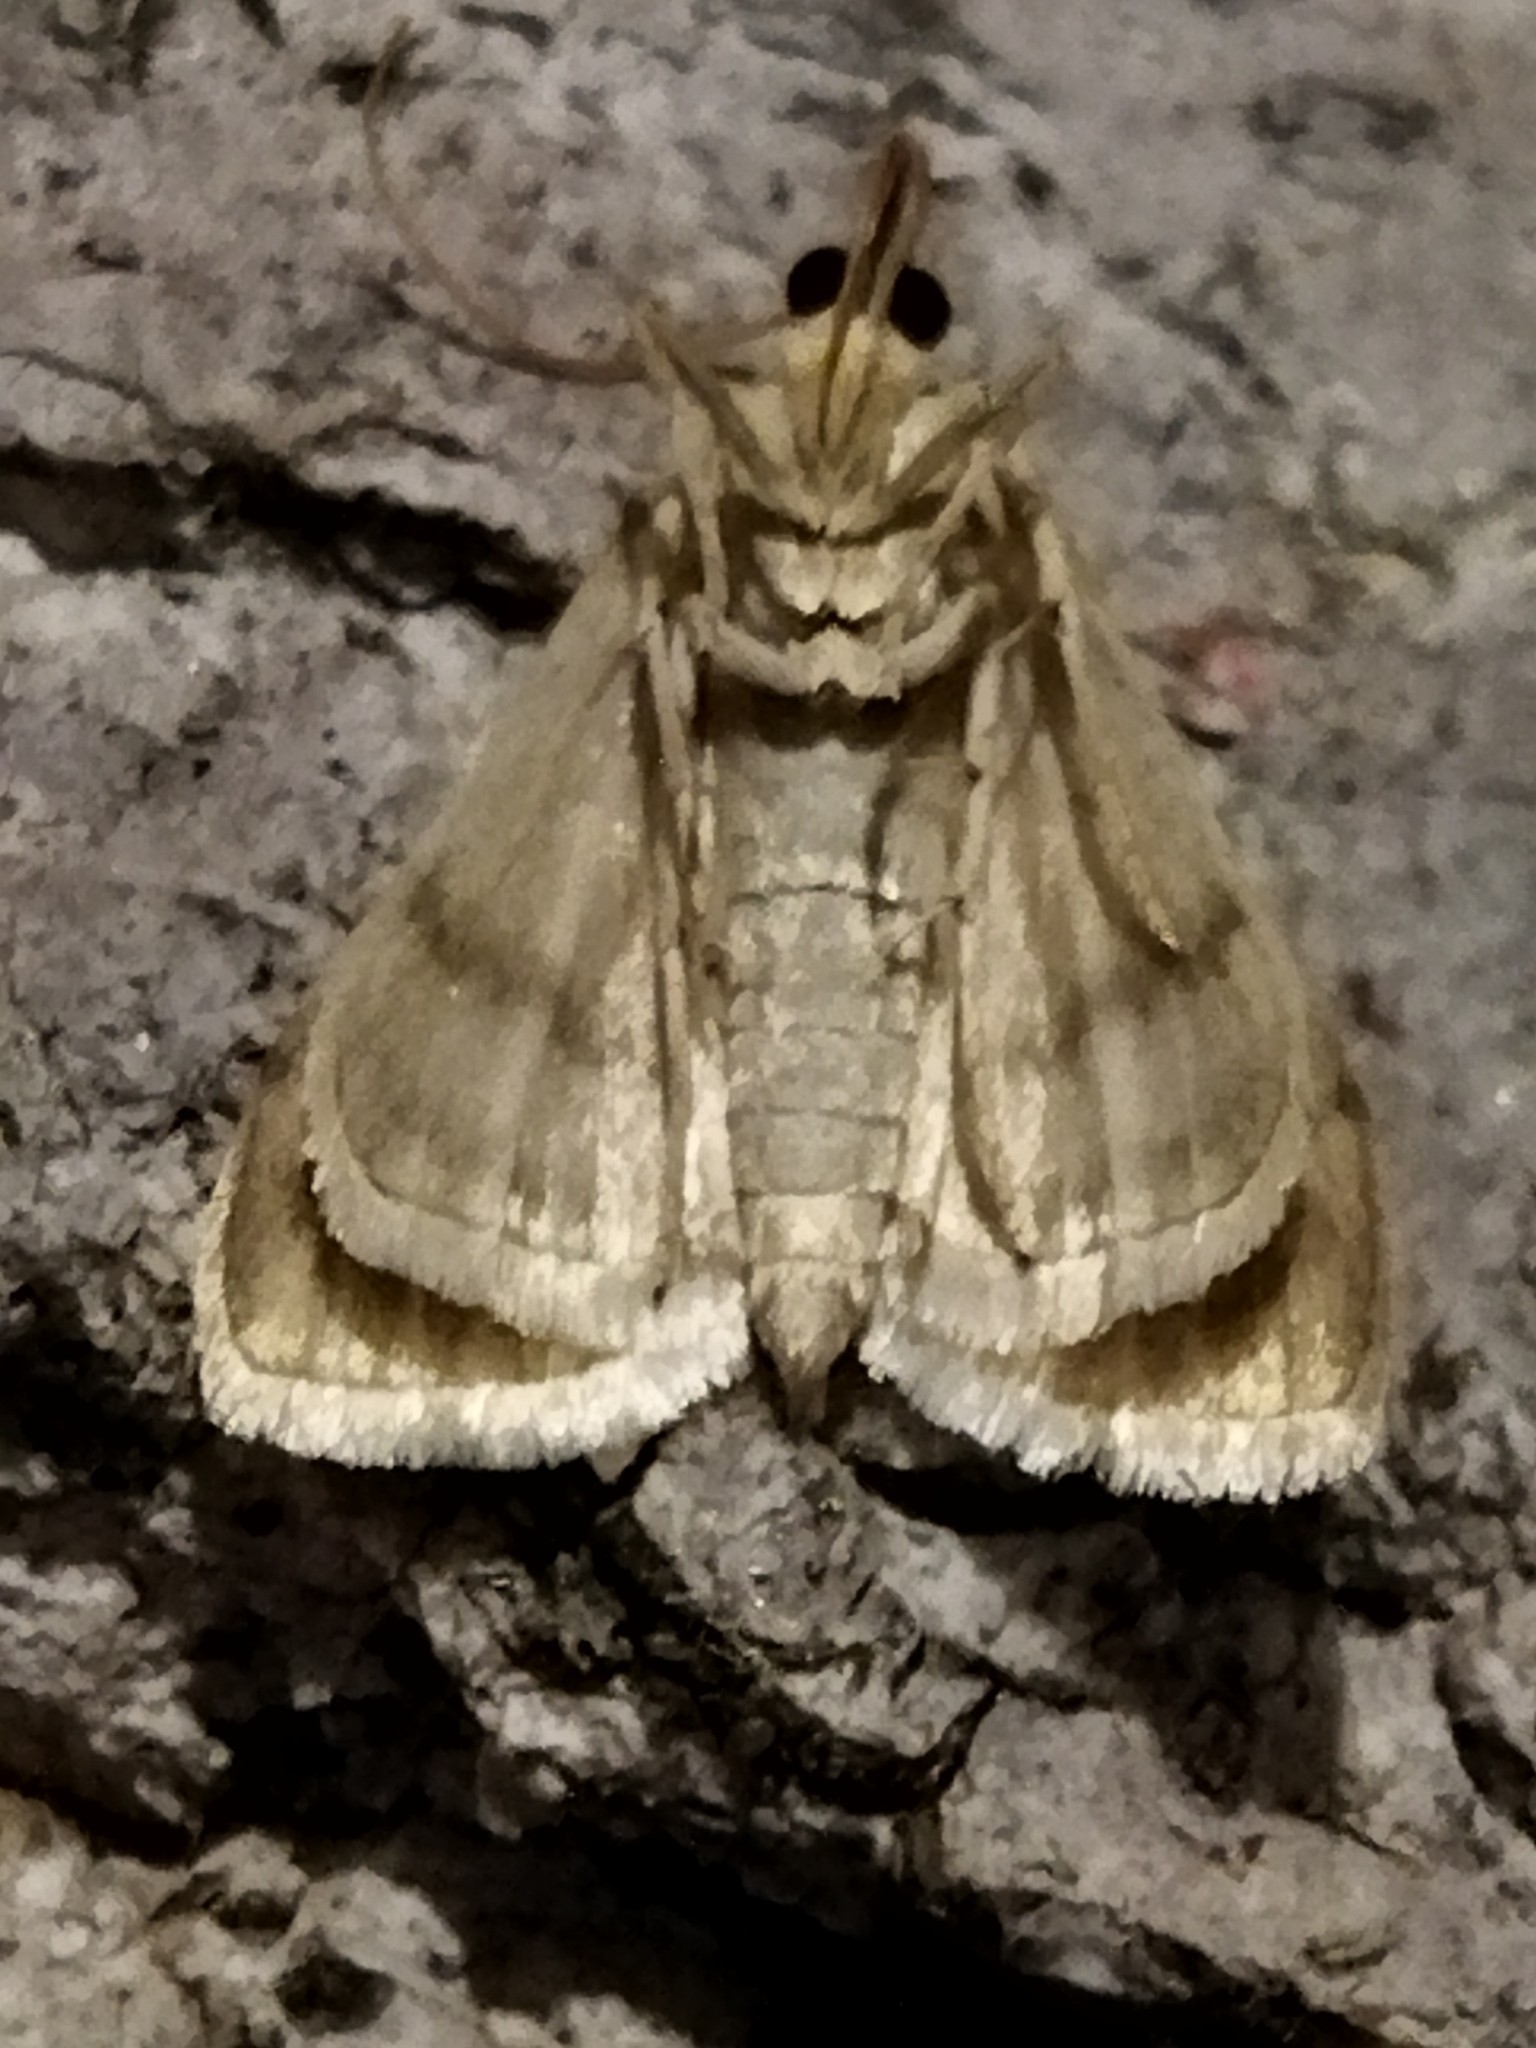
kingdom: Animalia
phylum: Arthropoda
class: Insecta
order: Lepidoptera
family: Crambidae
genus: Paracorsia
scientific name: Paracorsia repandalis
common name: Mullein moth
